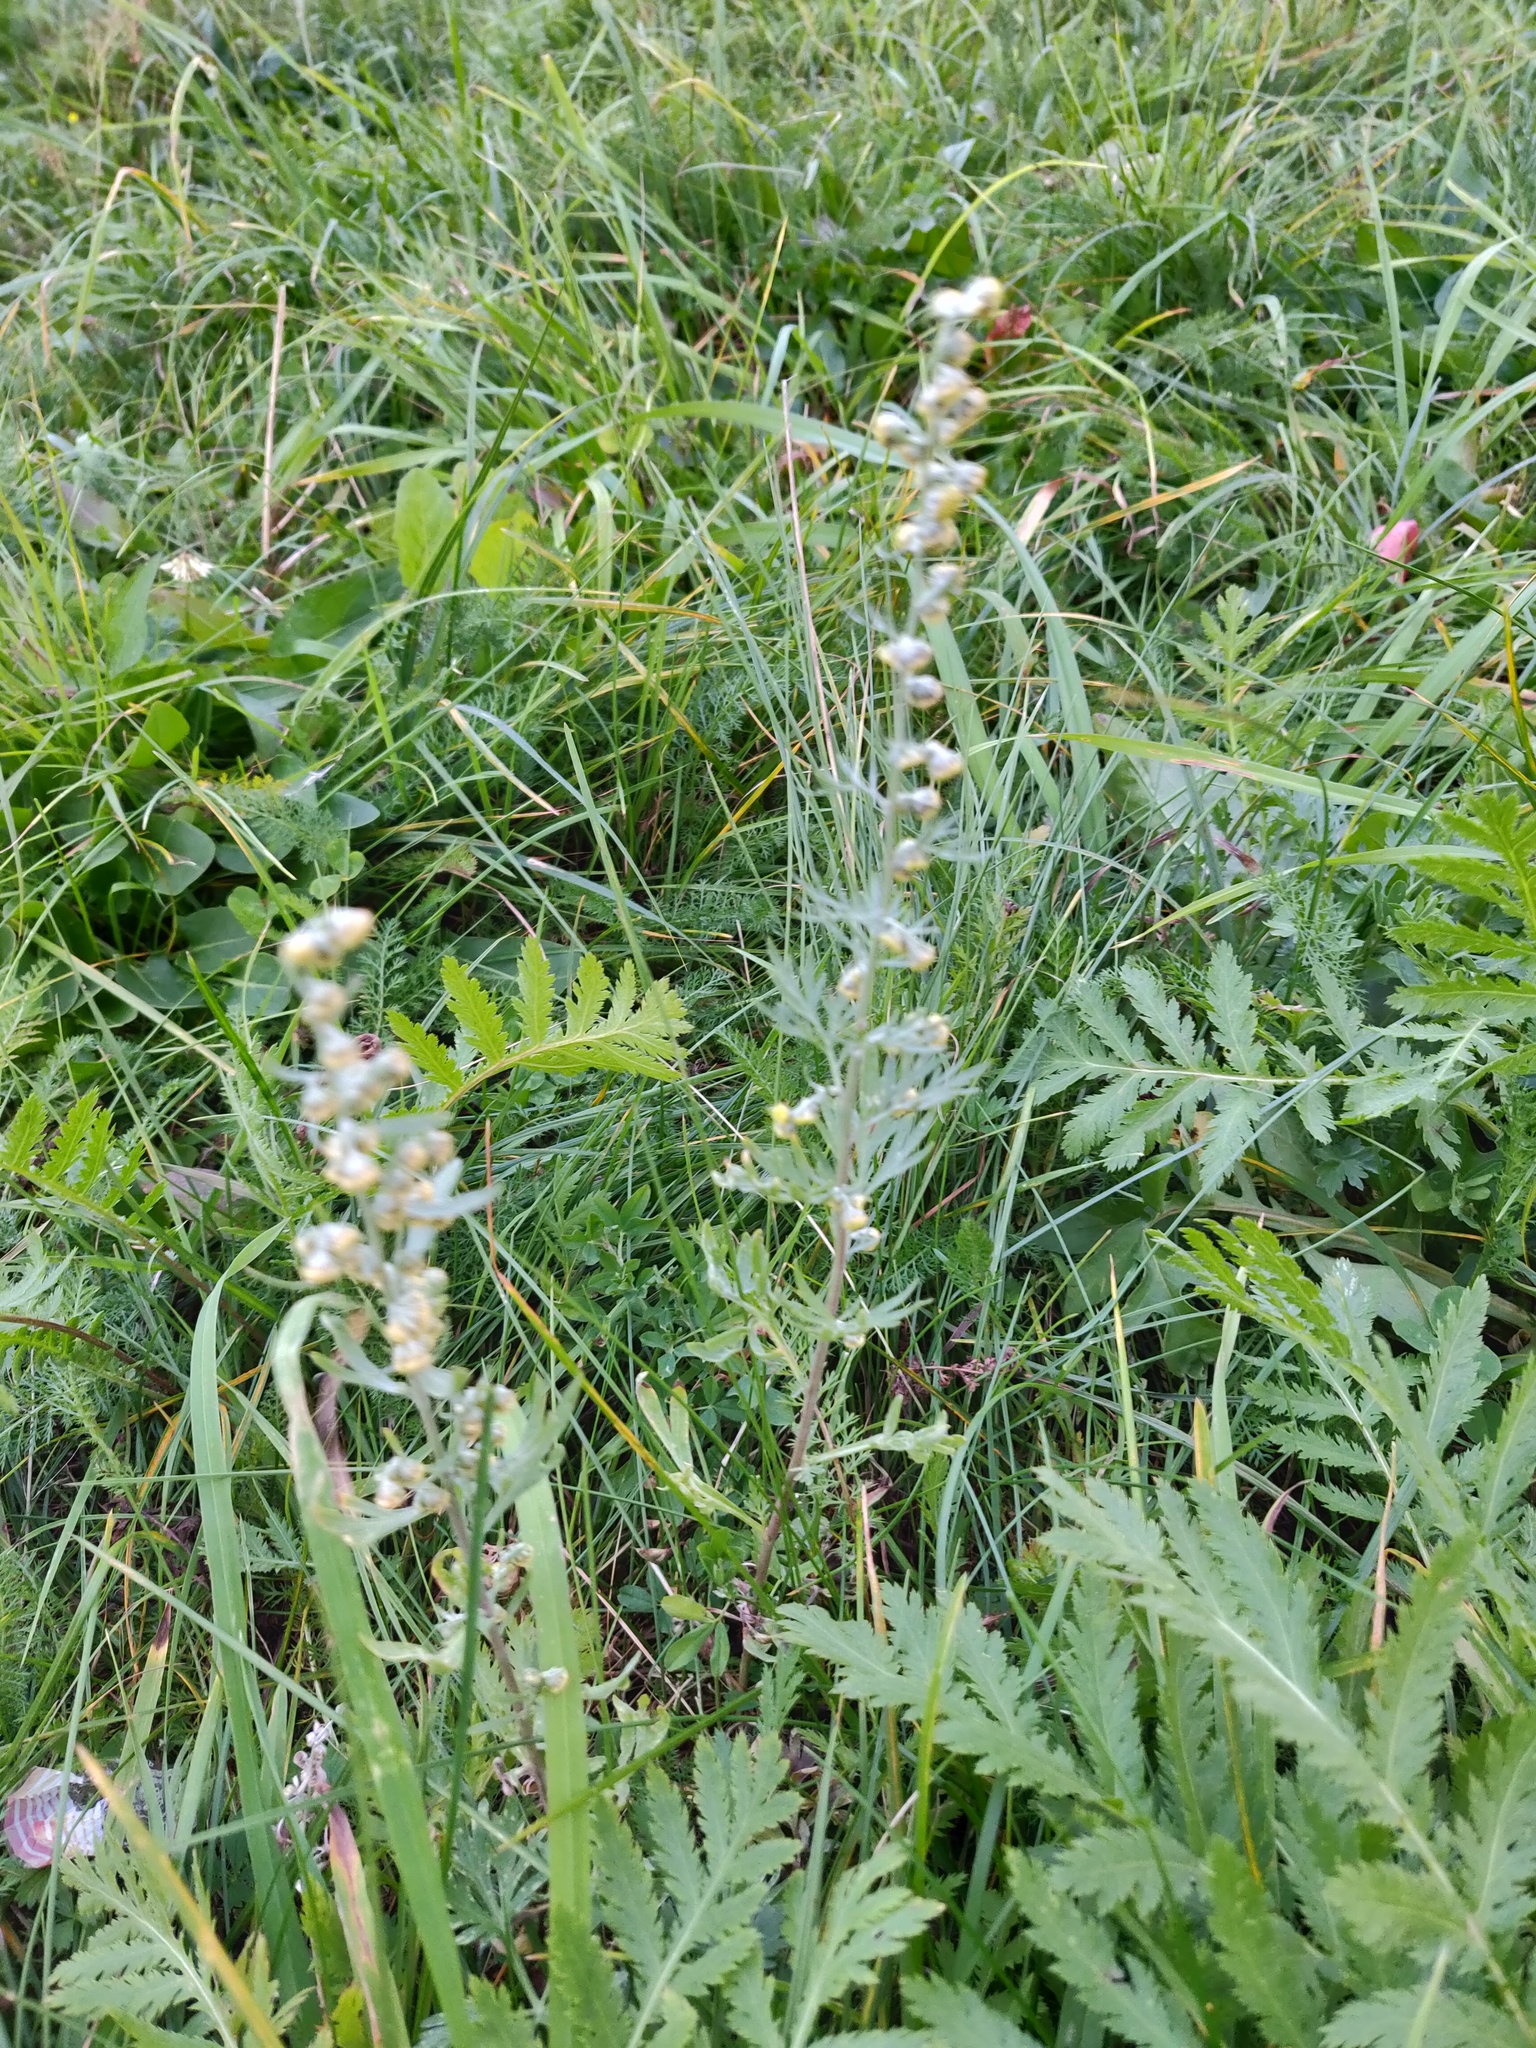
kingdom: Plantae
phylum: Tracheophyta
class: Magnoliopsida
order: Asterales
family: Asteraceae
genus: Artemisia
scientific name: Artemisia absinthium
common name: Wormwood
